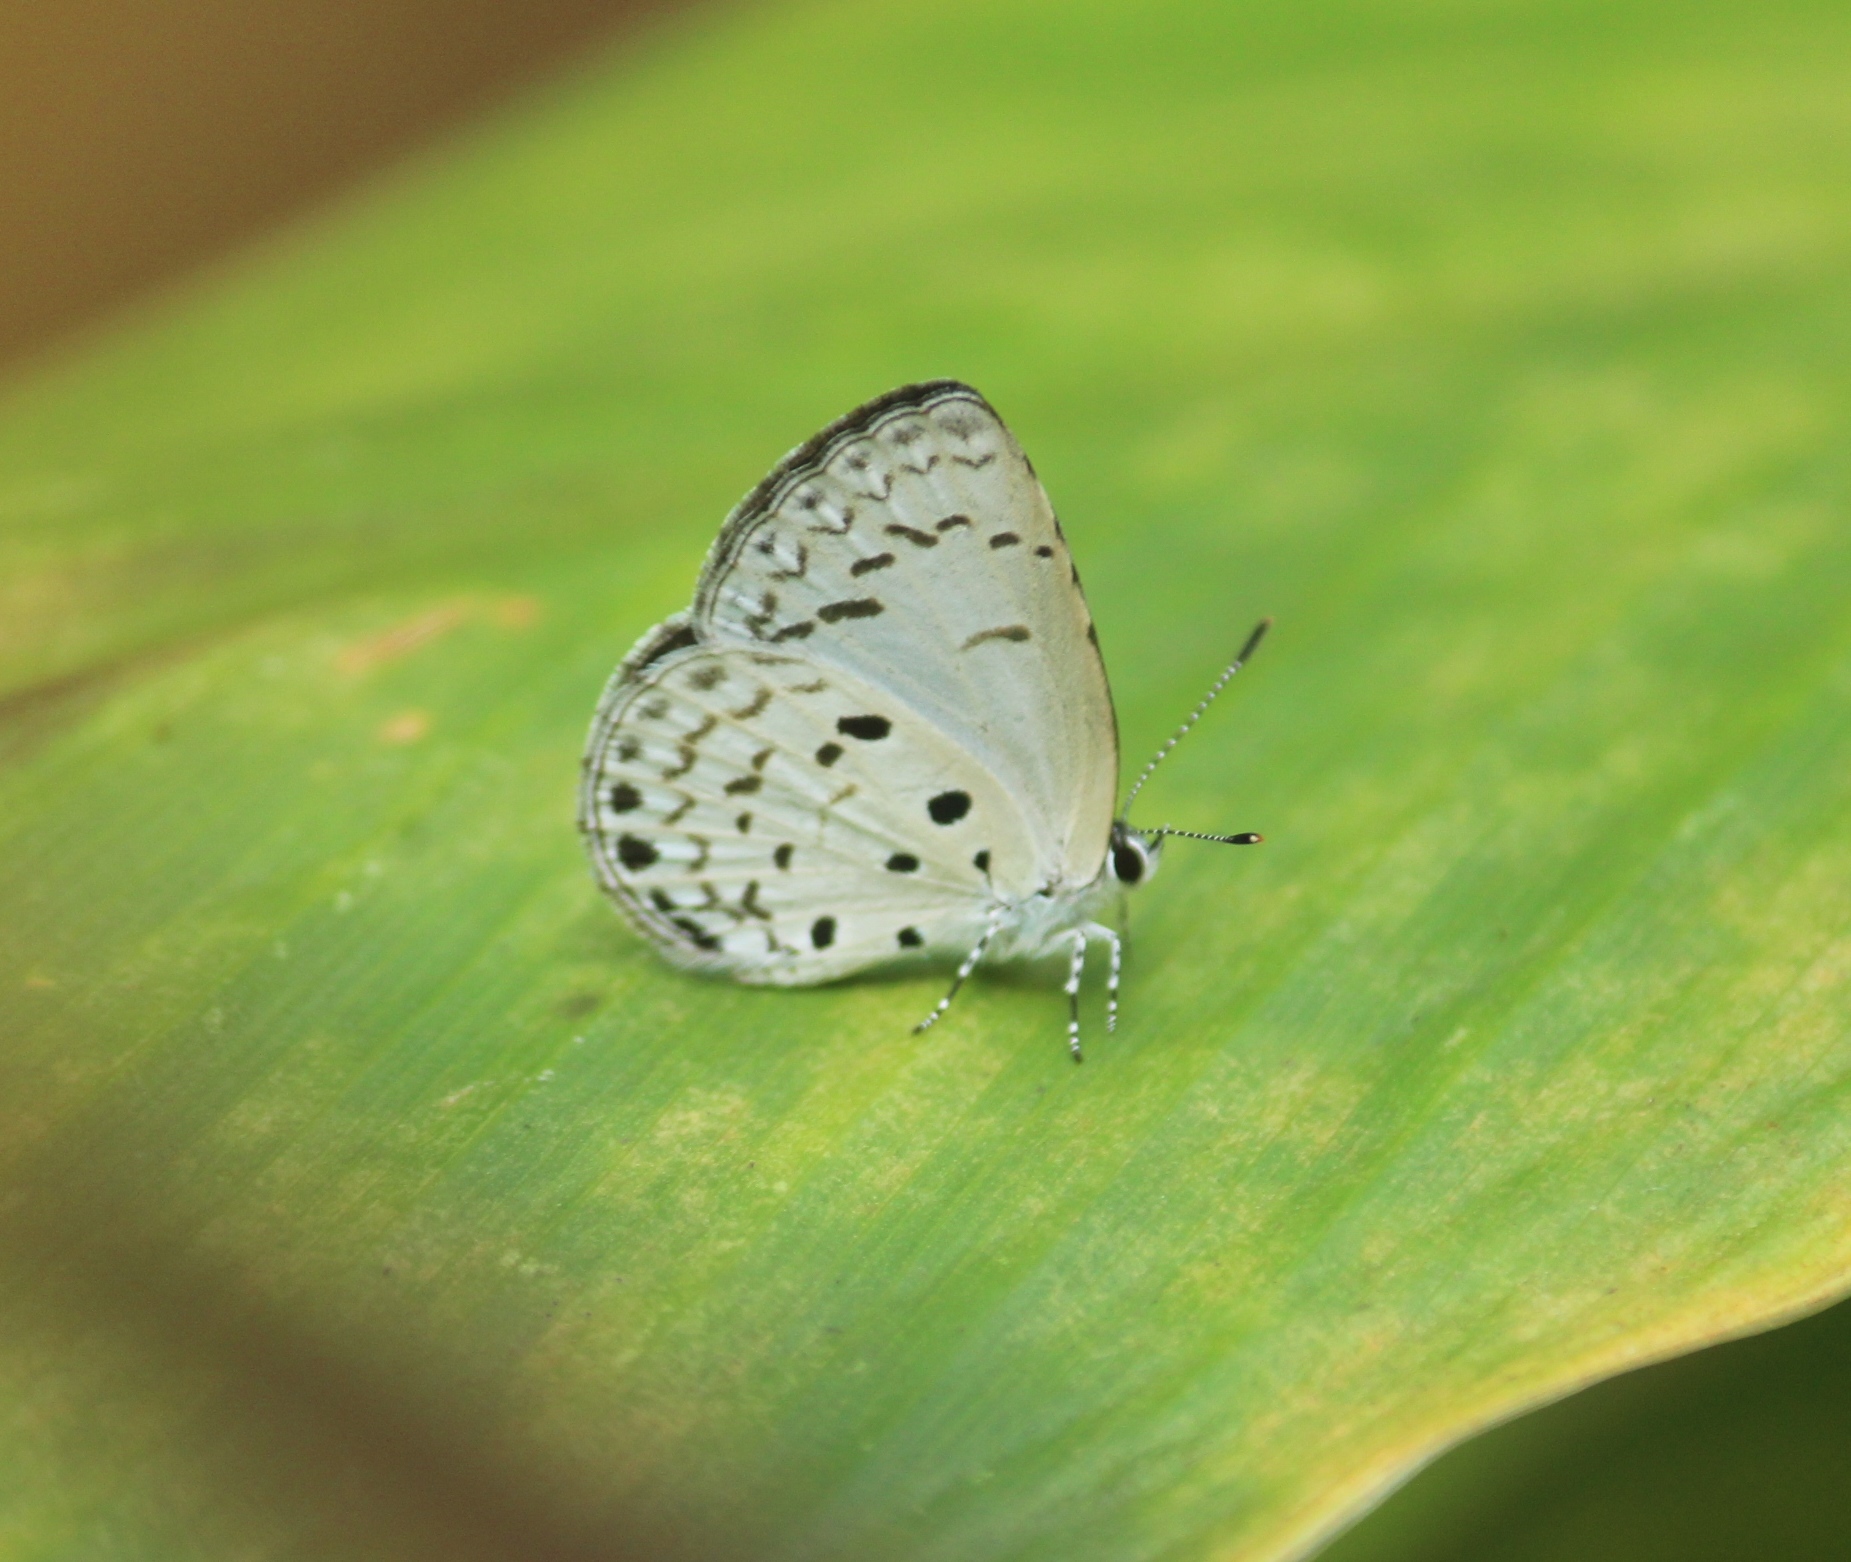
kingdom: Animalia
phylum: Arthropoda
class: Insecta
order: Lepidoptera
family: Lycaenidae
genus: Acytolepis
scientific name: Acytolepis puspa
